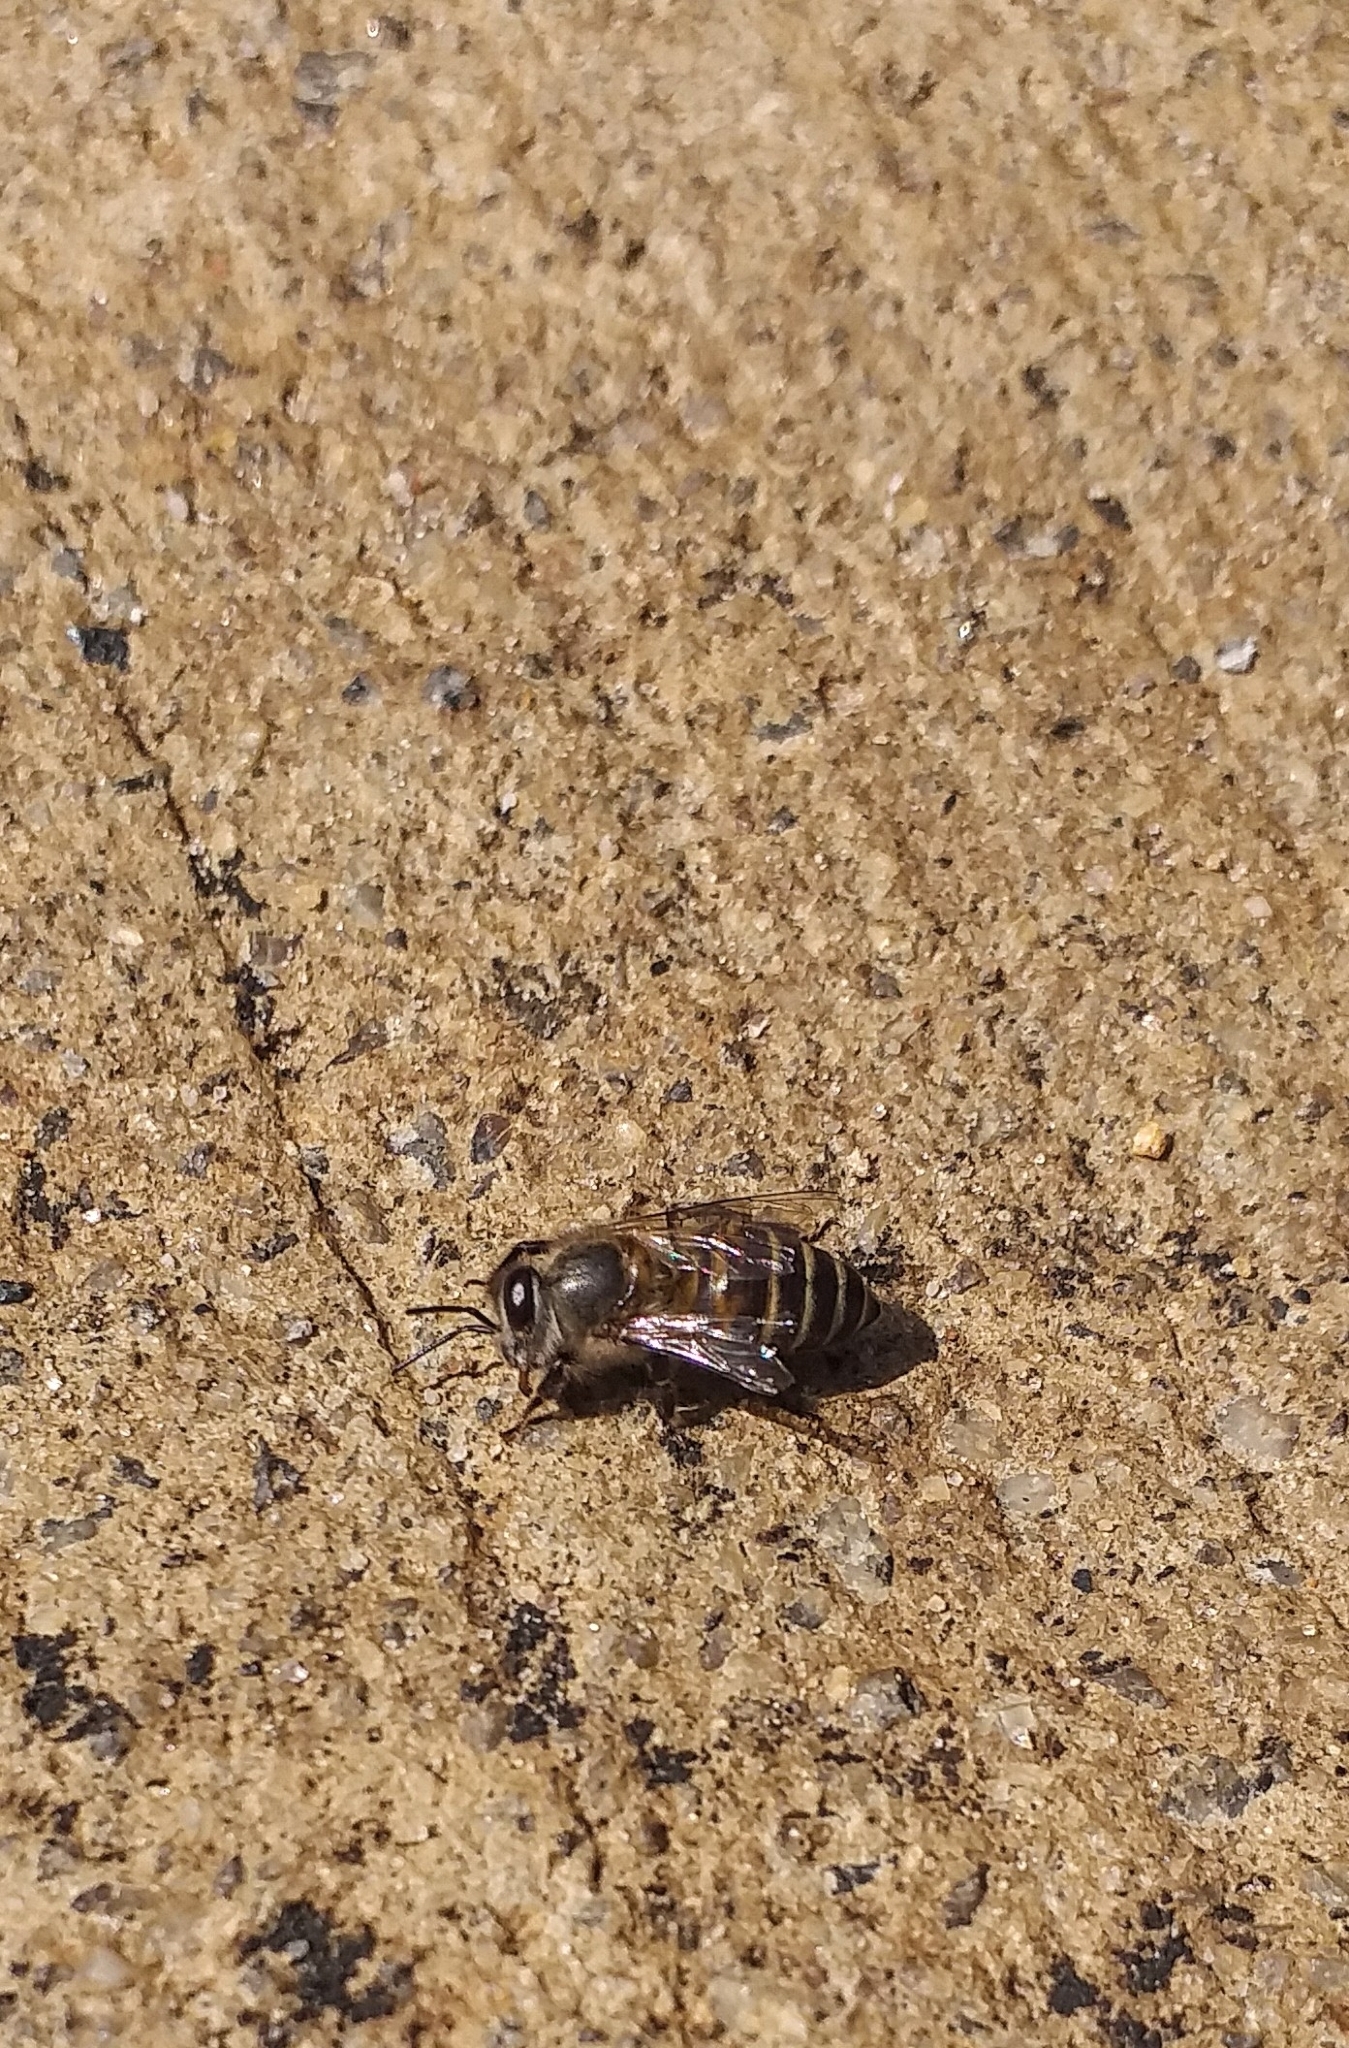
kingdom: Animalia
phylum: Arthropoda
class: Insecta
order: Hymenoptera
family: Apidae
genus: Apis
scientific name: Apis cerana
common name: Honey bee
